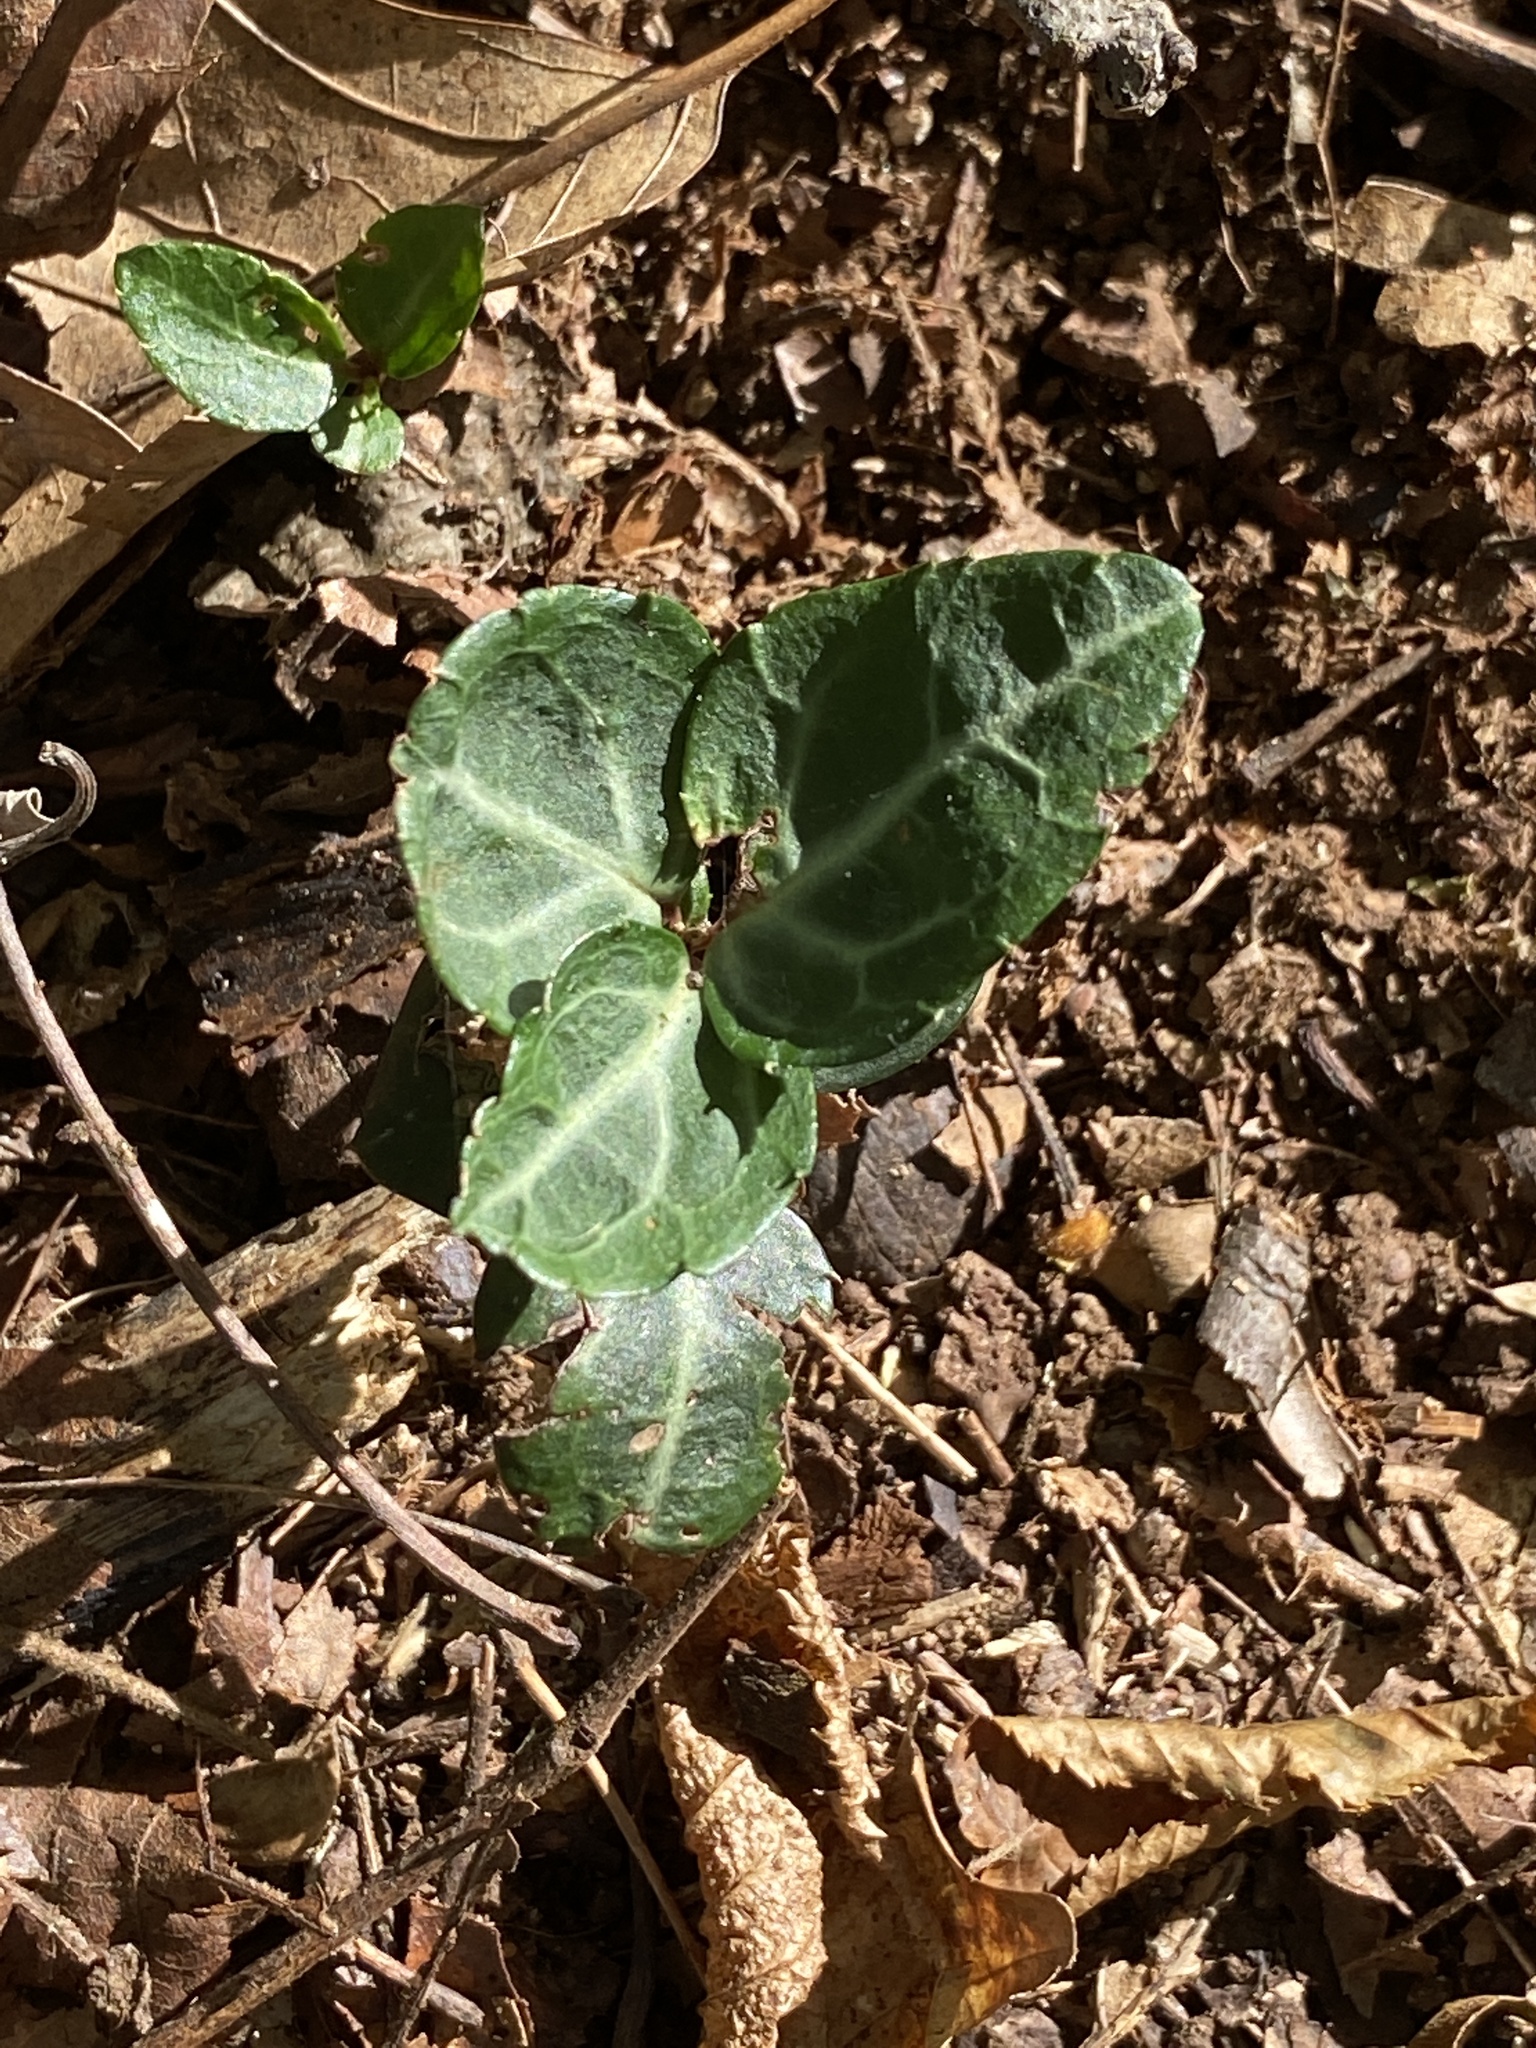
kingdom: Plantae
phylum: Tracheophyta
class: Magnoliopsida
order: Ericales
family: Ericaceae
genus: Chimaphila
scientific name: Chimaphila maculata
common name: Spotted pipsissewa
